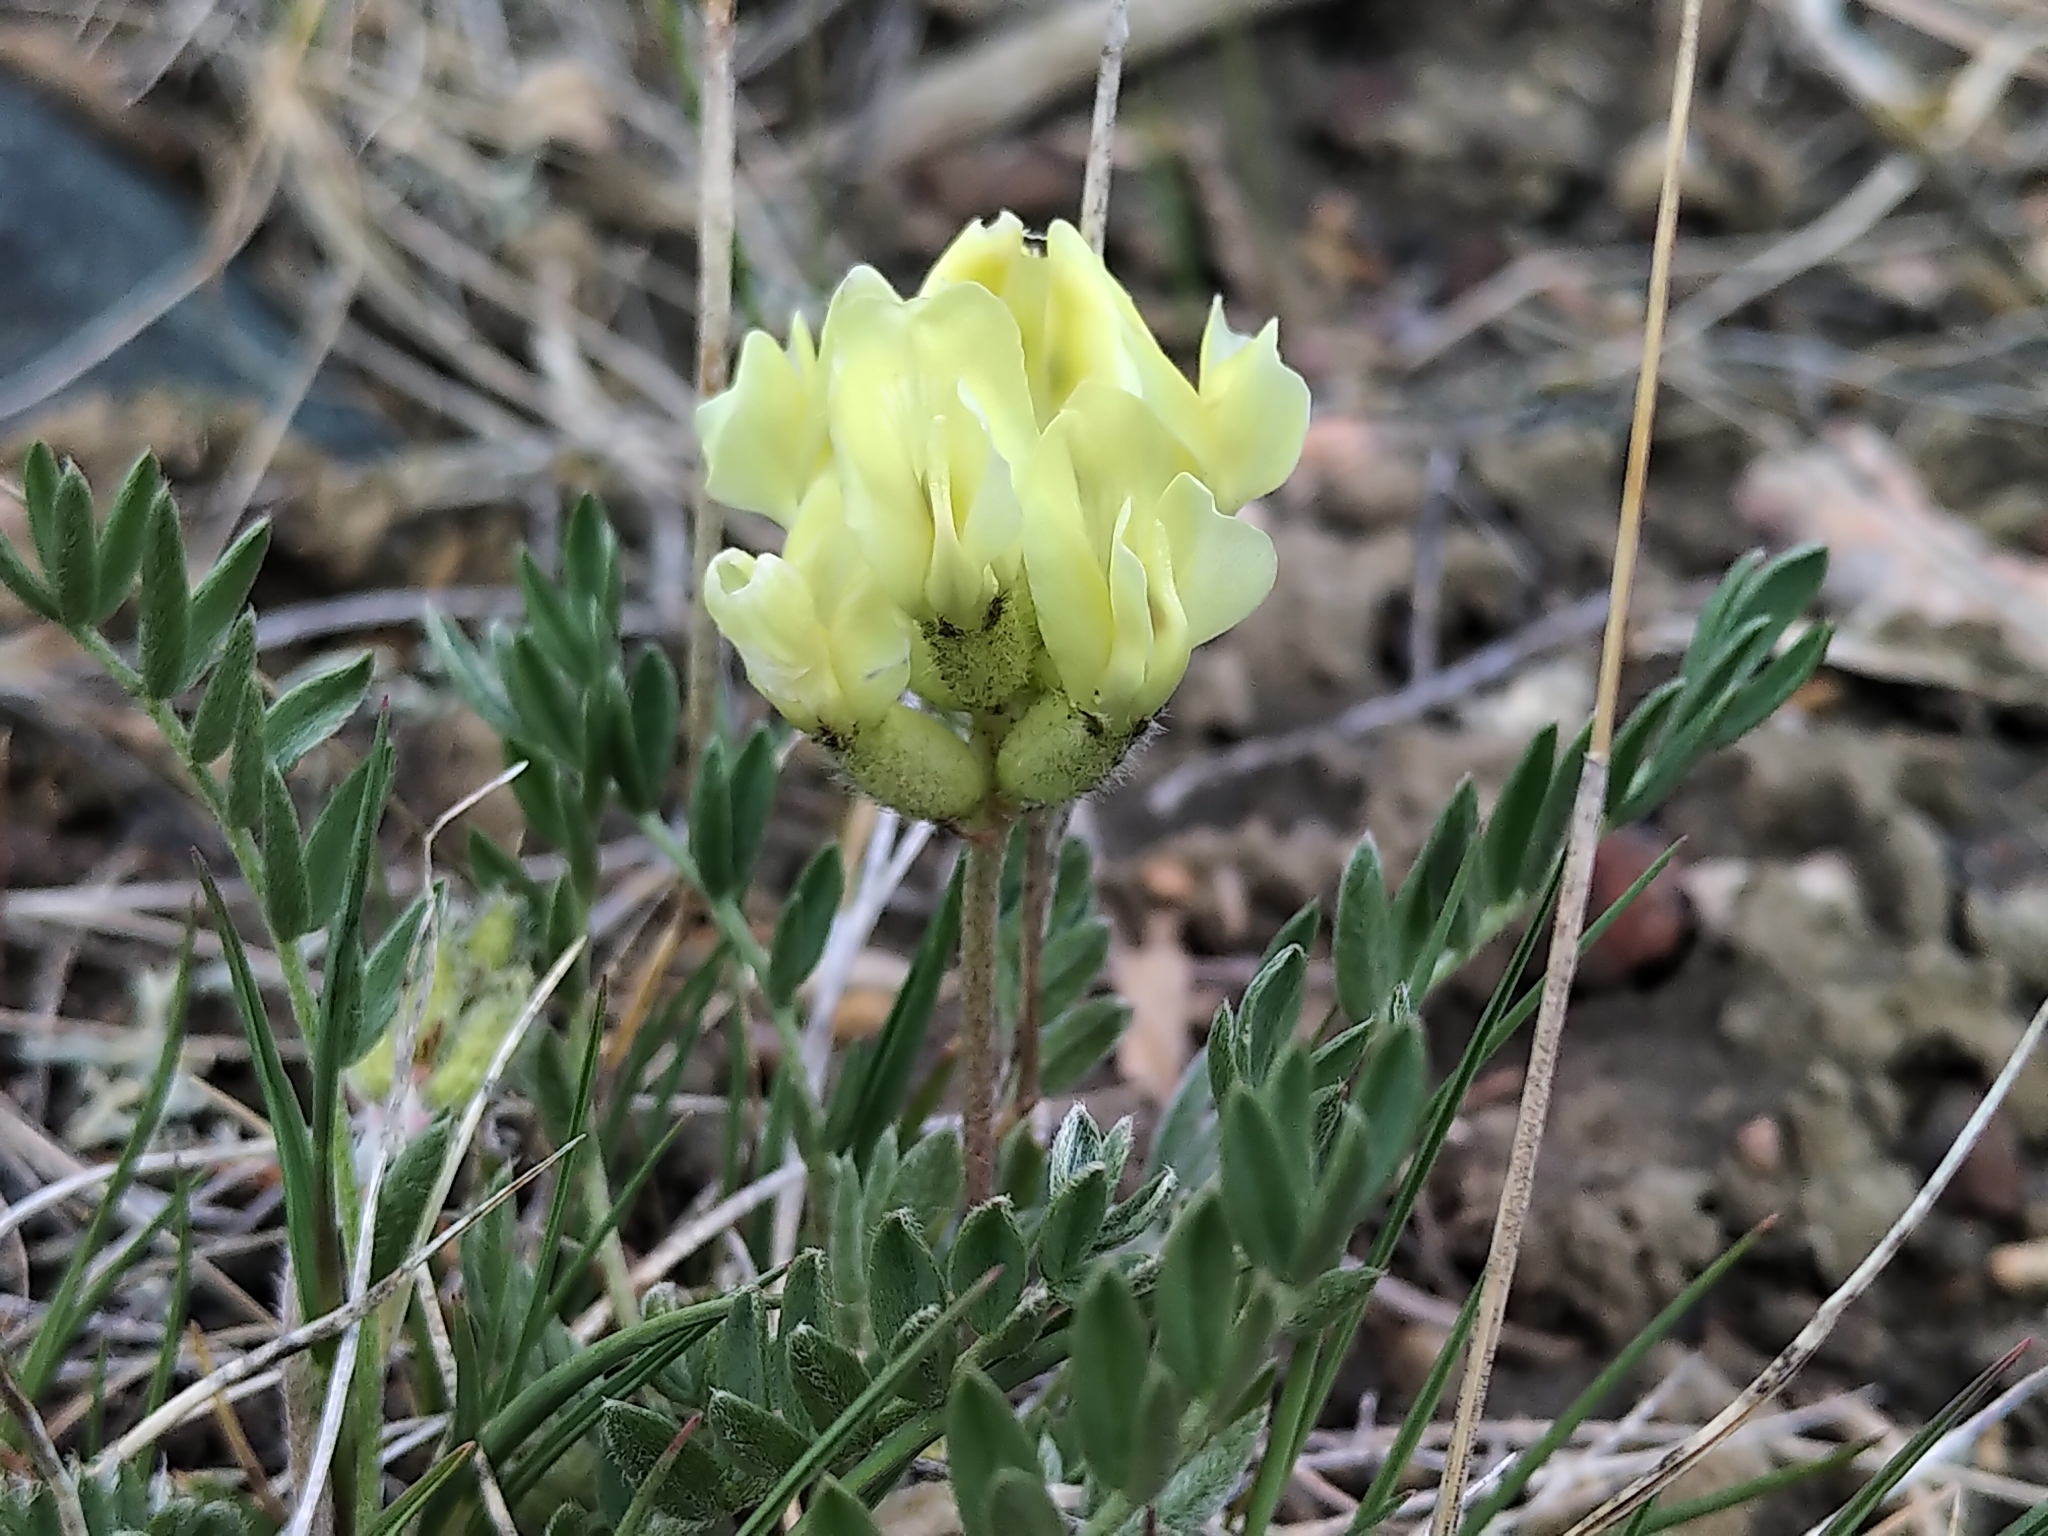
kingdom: Plantae
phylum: Tracheophyta
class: Magnoliopsida
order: Fabales
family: Fabaceae
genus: Oxytropis
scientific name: Oxytropis sericea
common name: Silky locoweed
